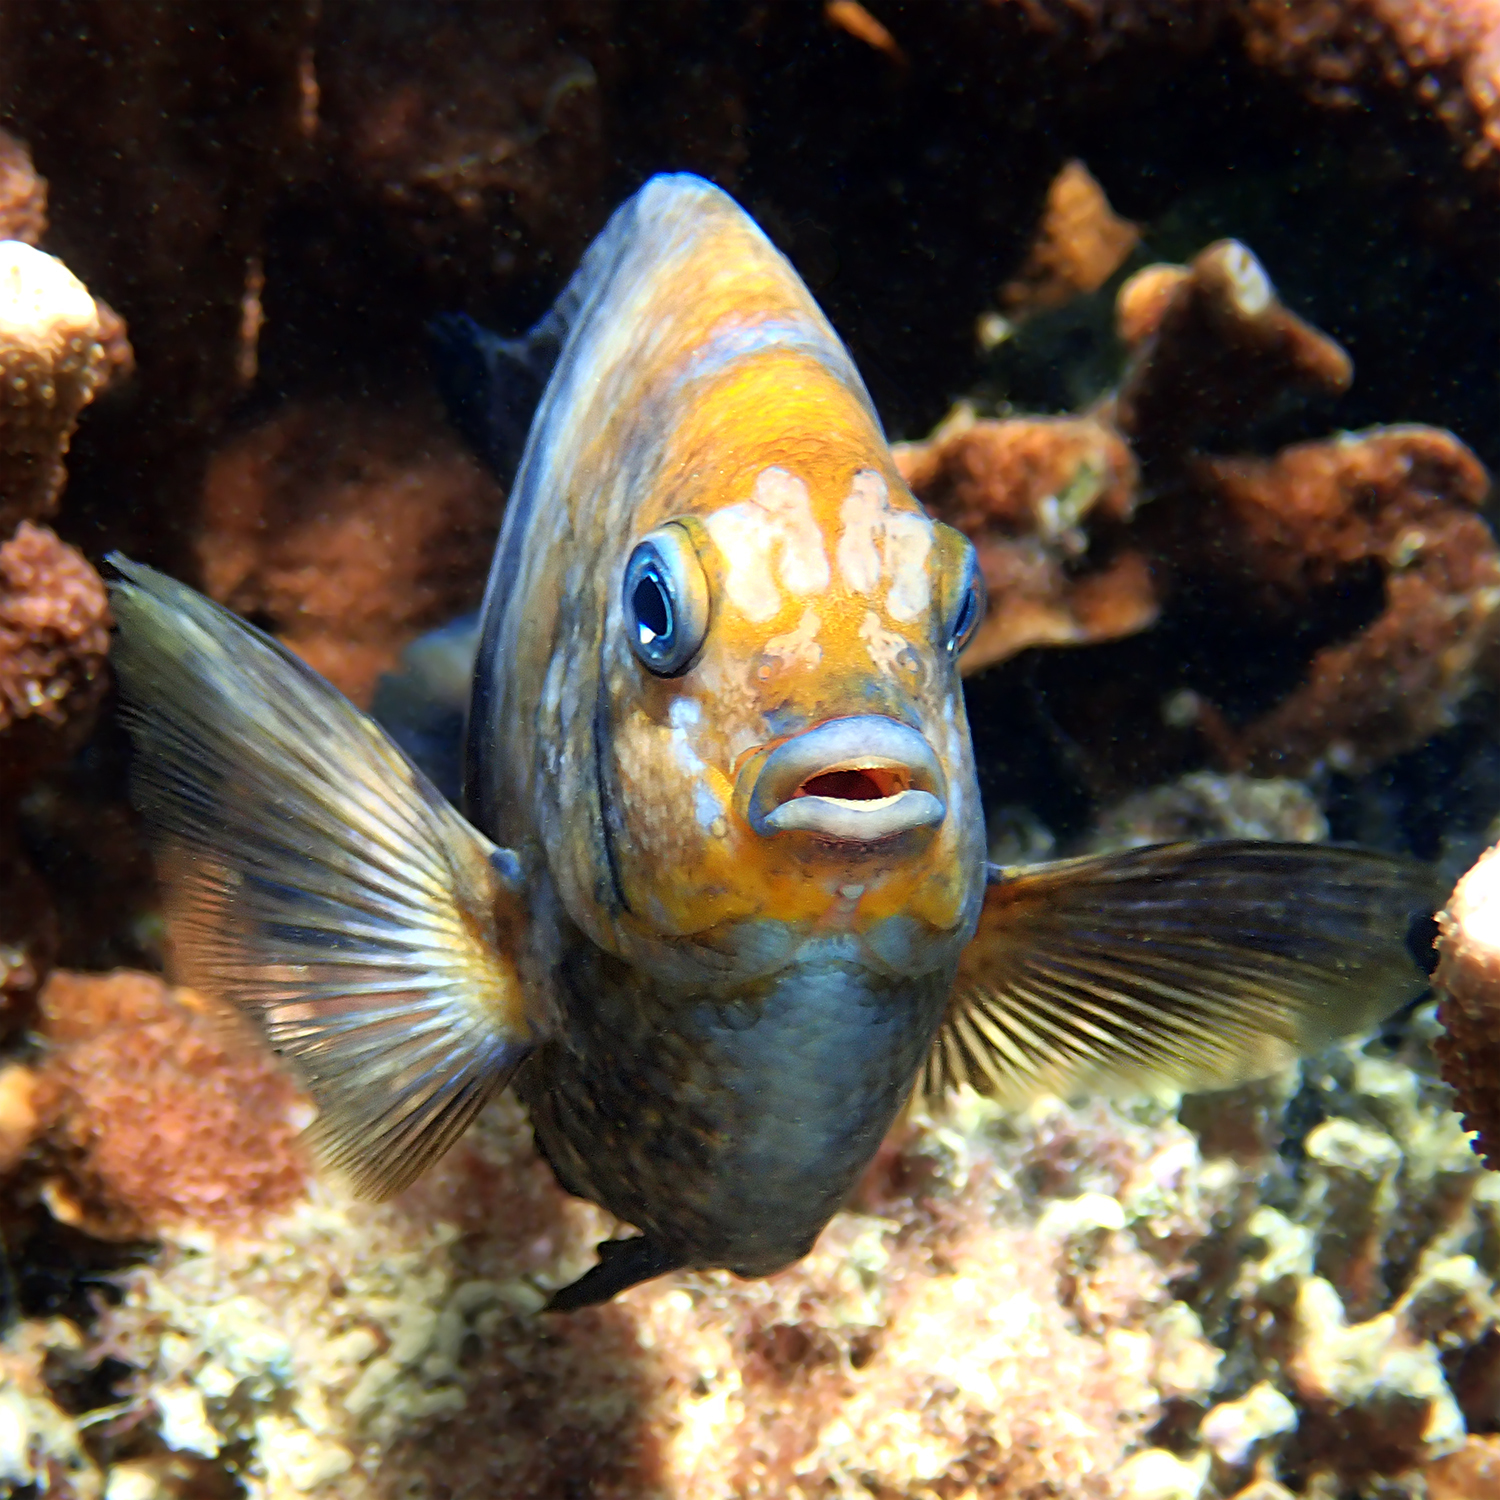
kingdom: Animalia
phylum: Chordata
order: Perciformes
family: Pomacentridae
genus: Parma
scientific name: Parma polylepis
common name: Banded parma
